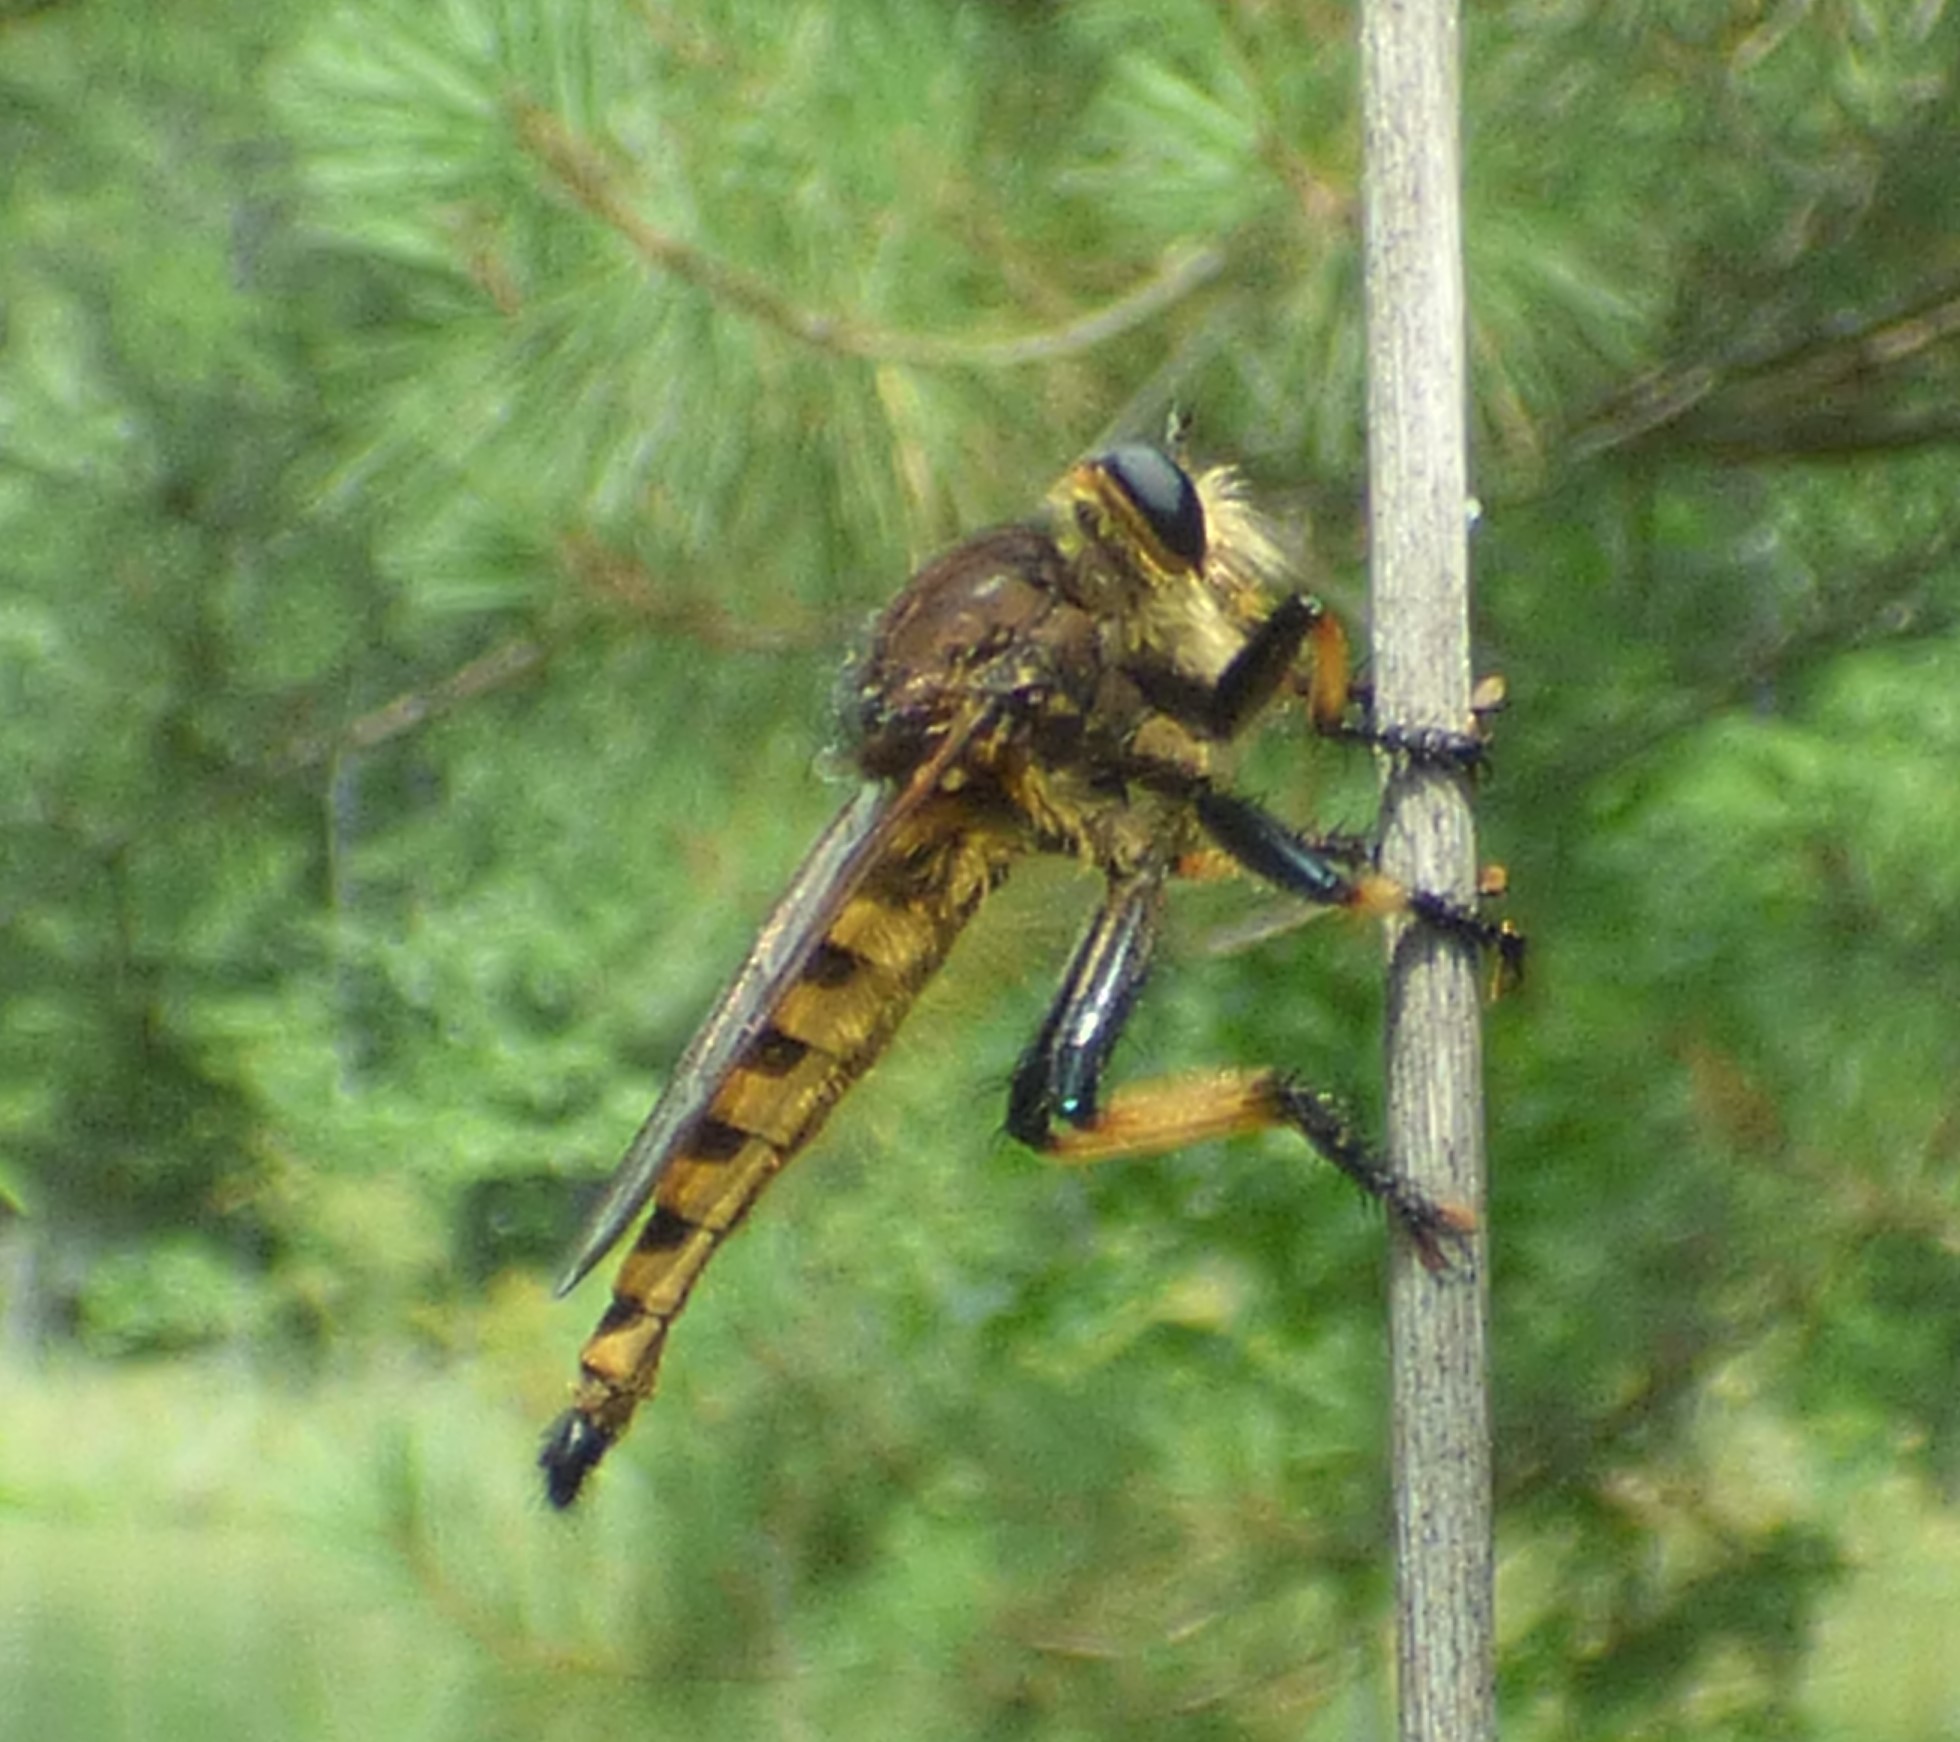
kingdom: Animalia
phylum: Arthropoda
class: Insecta
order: Diptera
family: Asilidae
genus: Promachus
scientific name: Promachus rufipes
